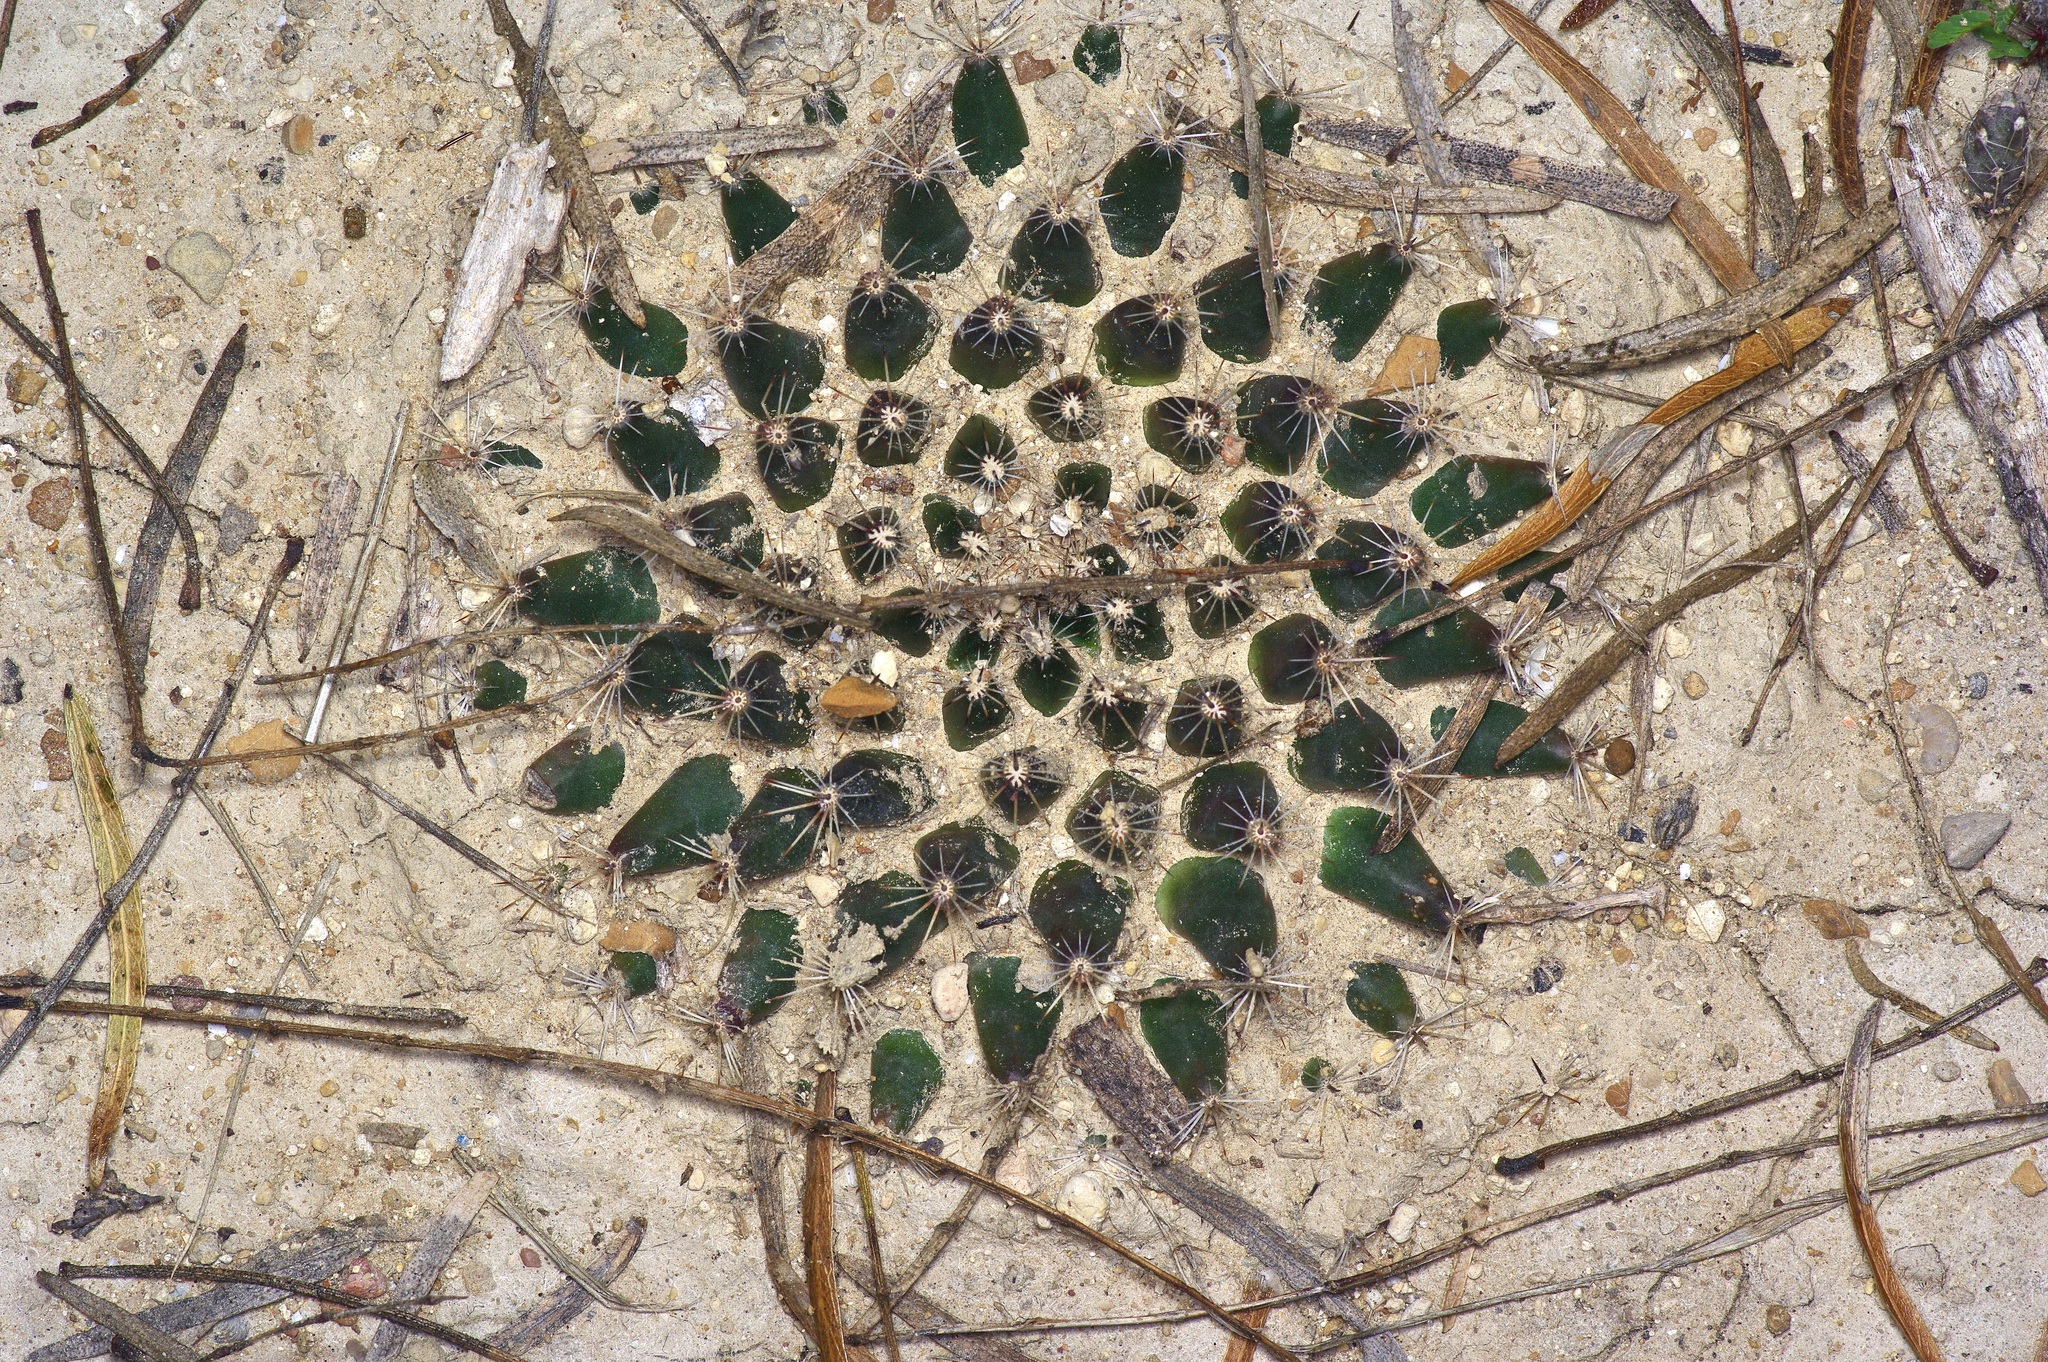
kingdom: Plantae
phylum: Tracheophyta
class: Magnoliopsida
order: Caryophyllales
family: Cactaceae
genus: Mammillaria
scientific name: Mammillaria heyderi
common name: Little nipple cactus
